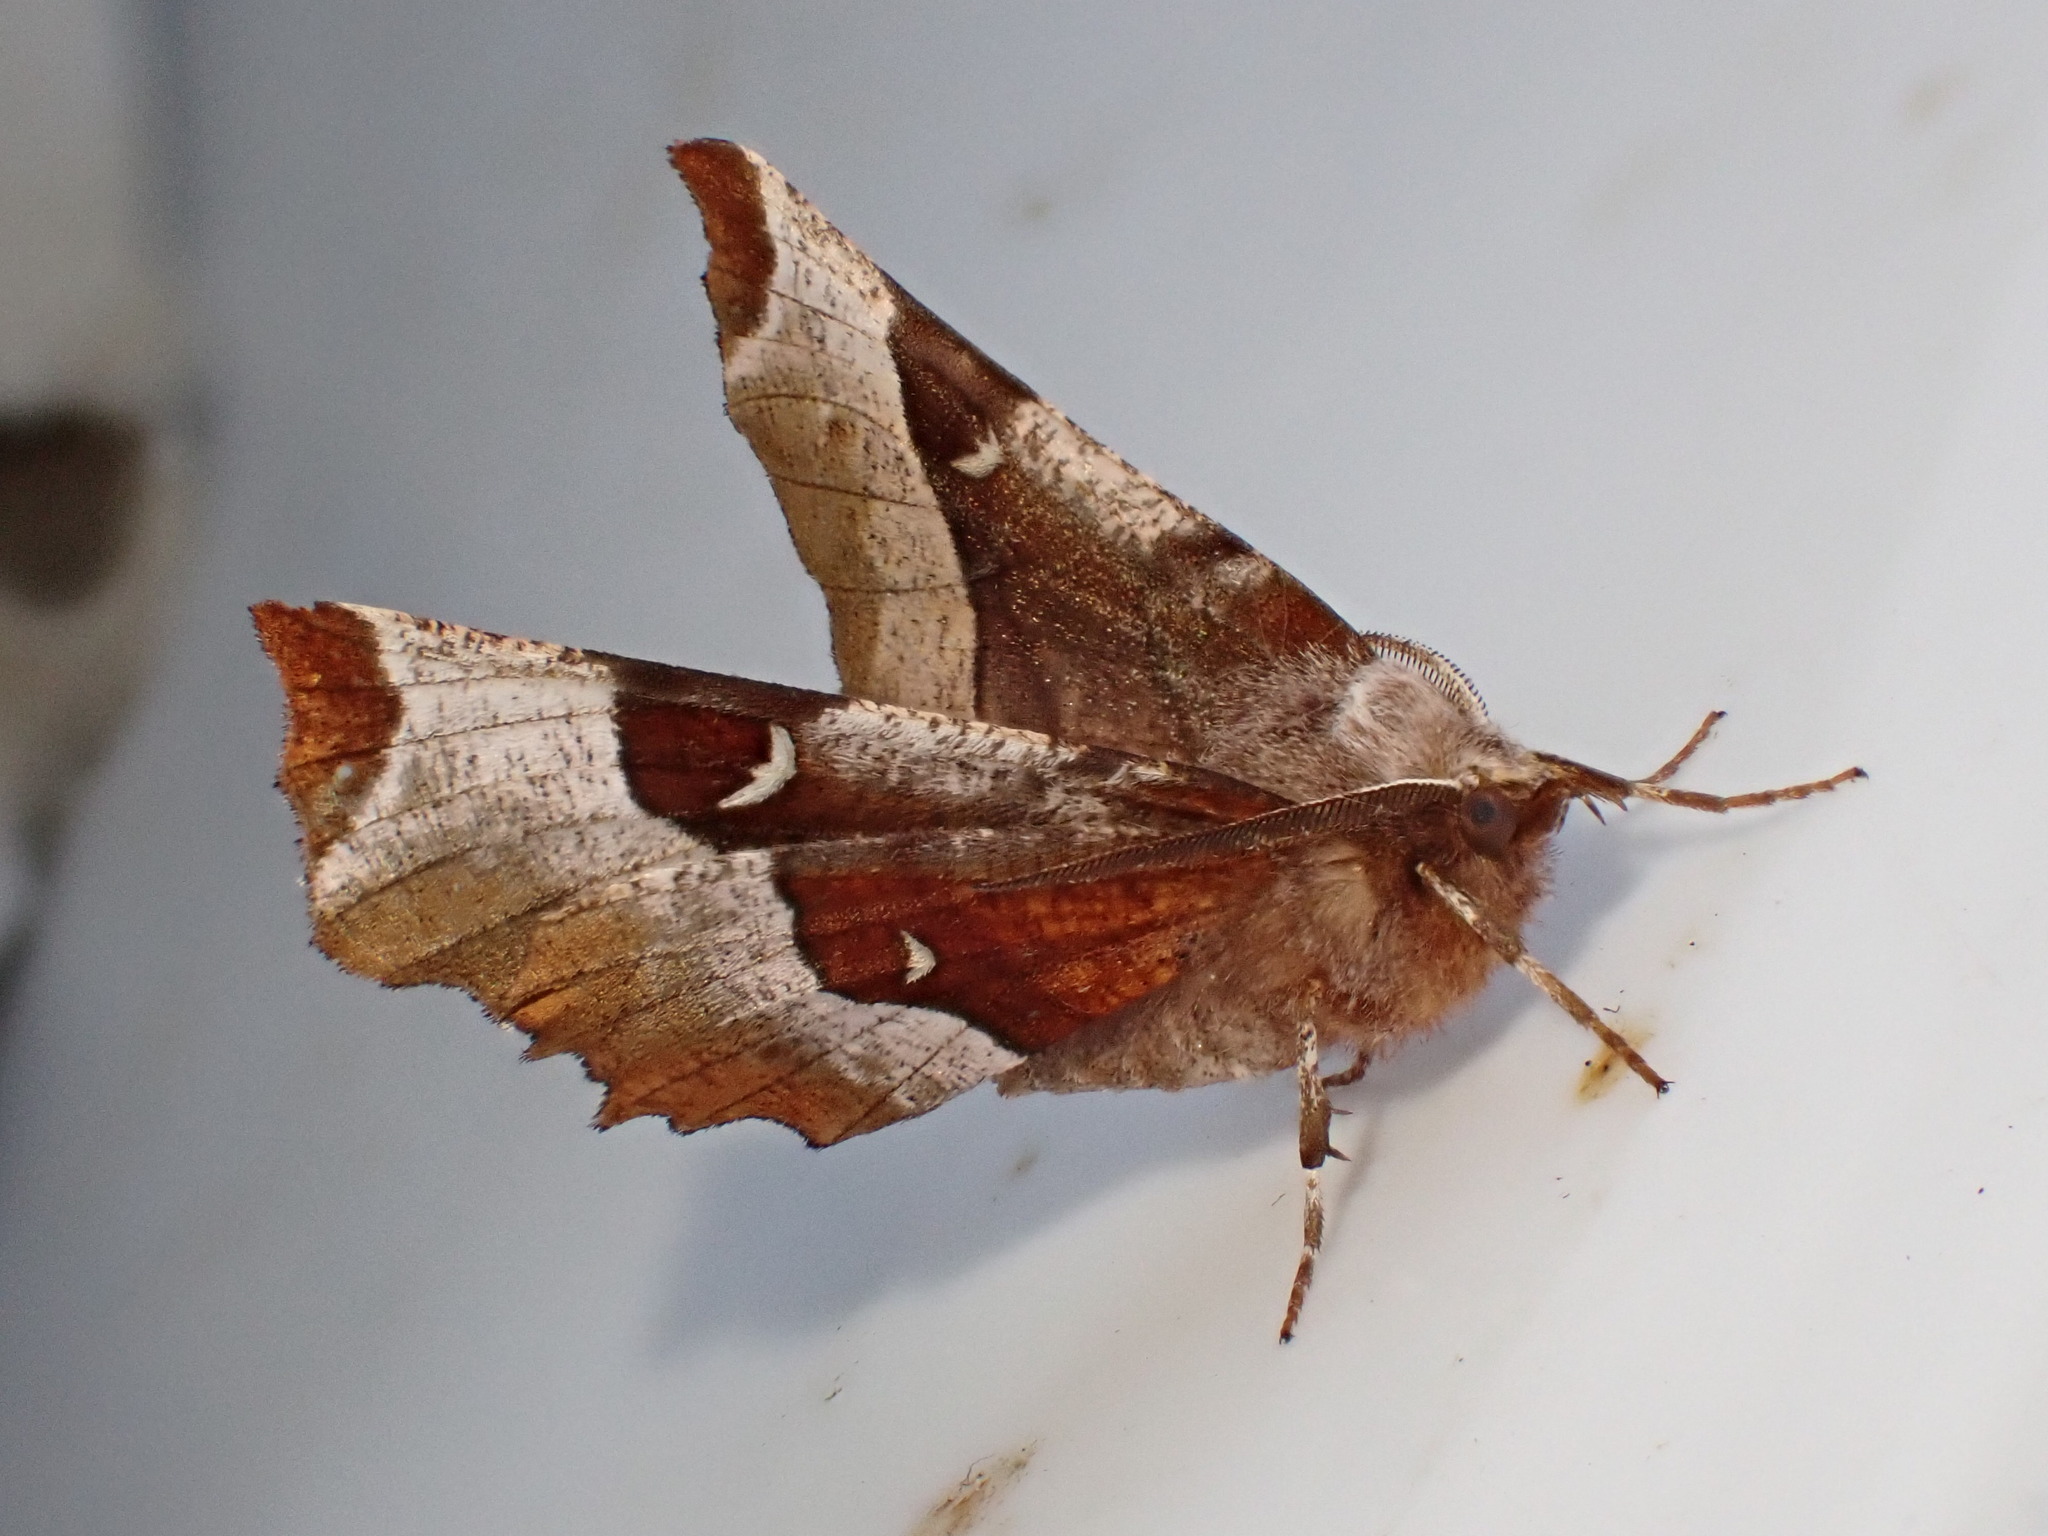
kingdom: Animalia
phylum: Arthropoda
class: Insecta
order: Lepidoptera
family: Geometridae
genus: Selenia
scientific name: Selenia tetralunaria
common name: Purple thorn
